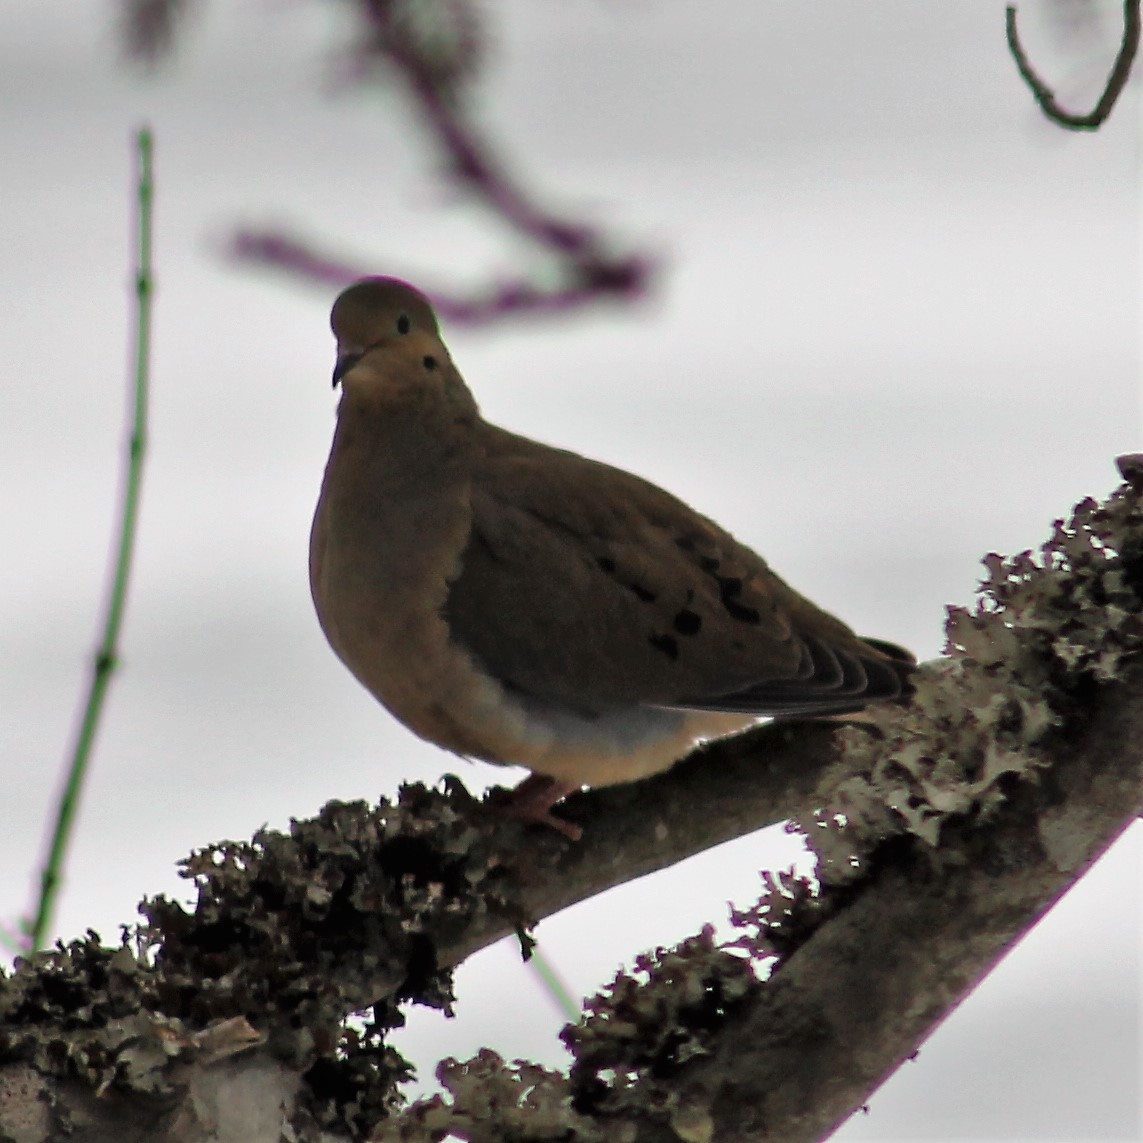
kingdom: Animalia
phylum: Chordata
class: Aves
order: Columbiformes
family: Columbidae
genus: Zenaida
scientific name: Zenaida macroura
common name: Mourning dove
